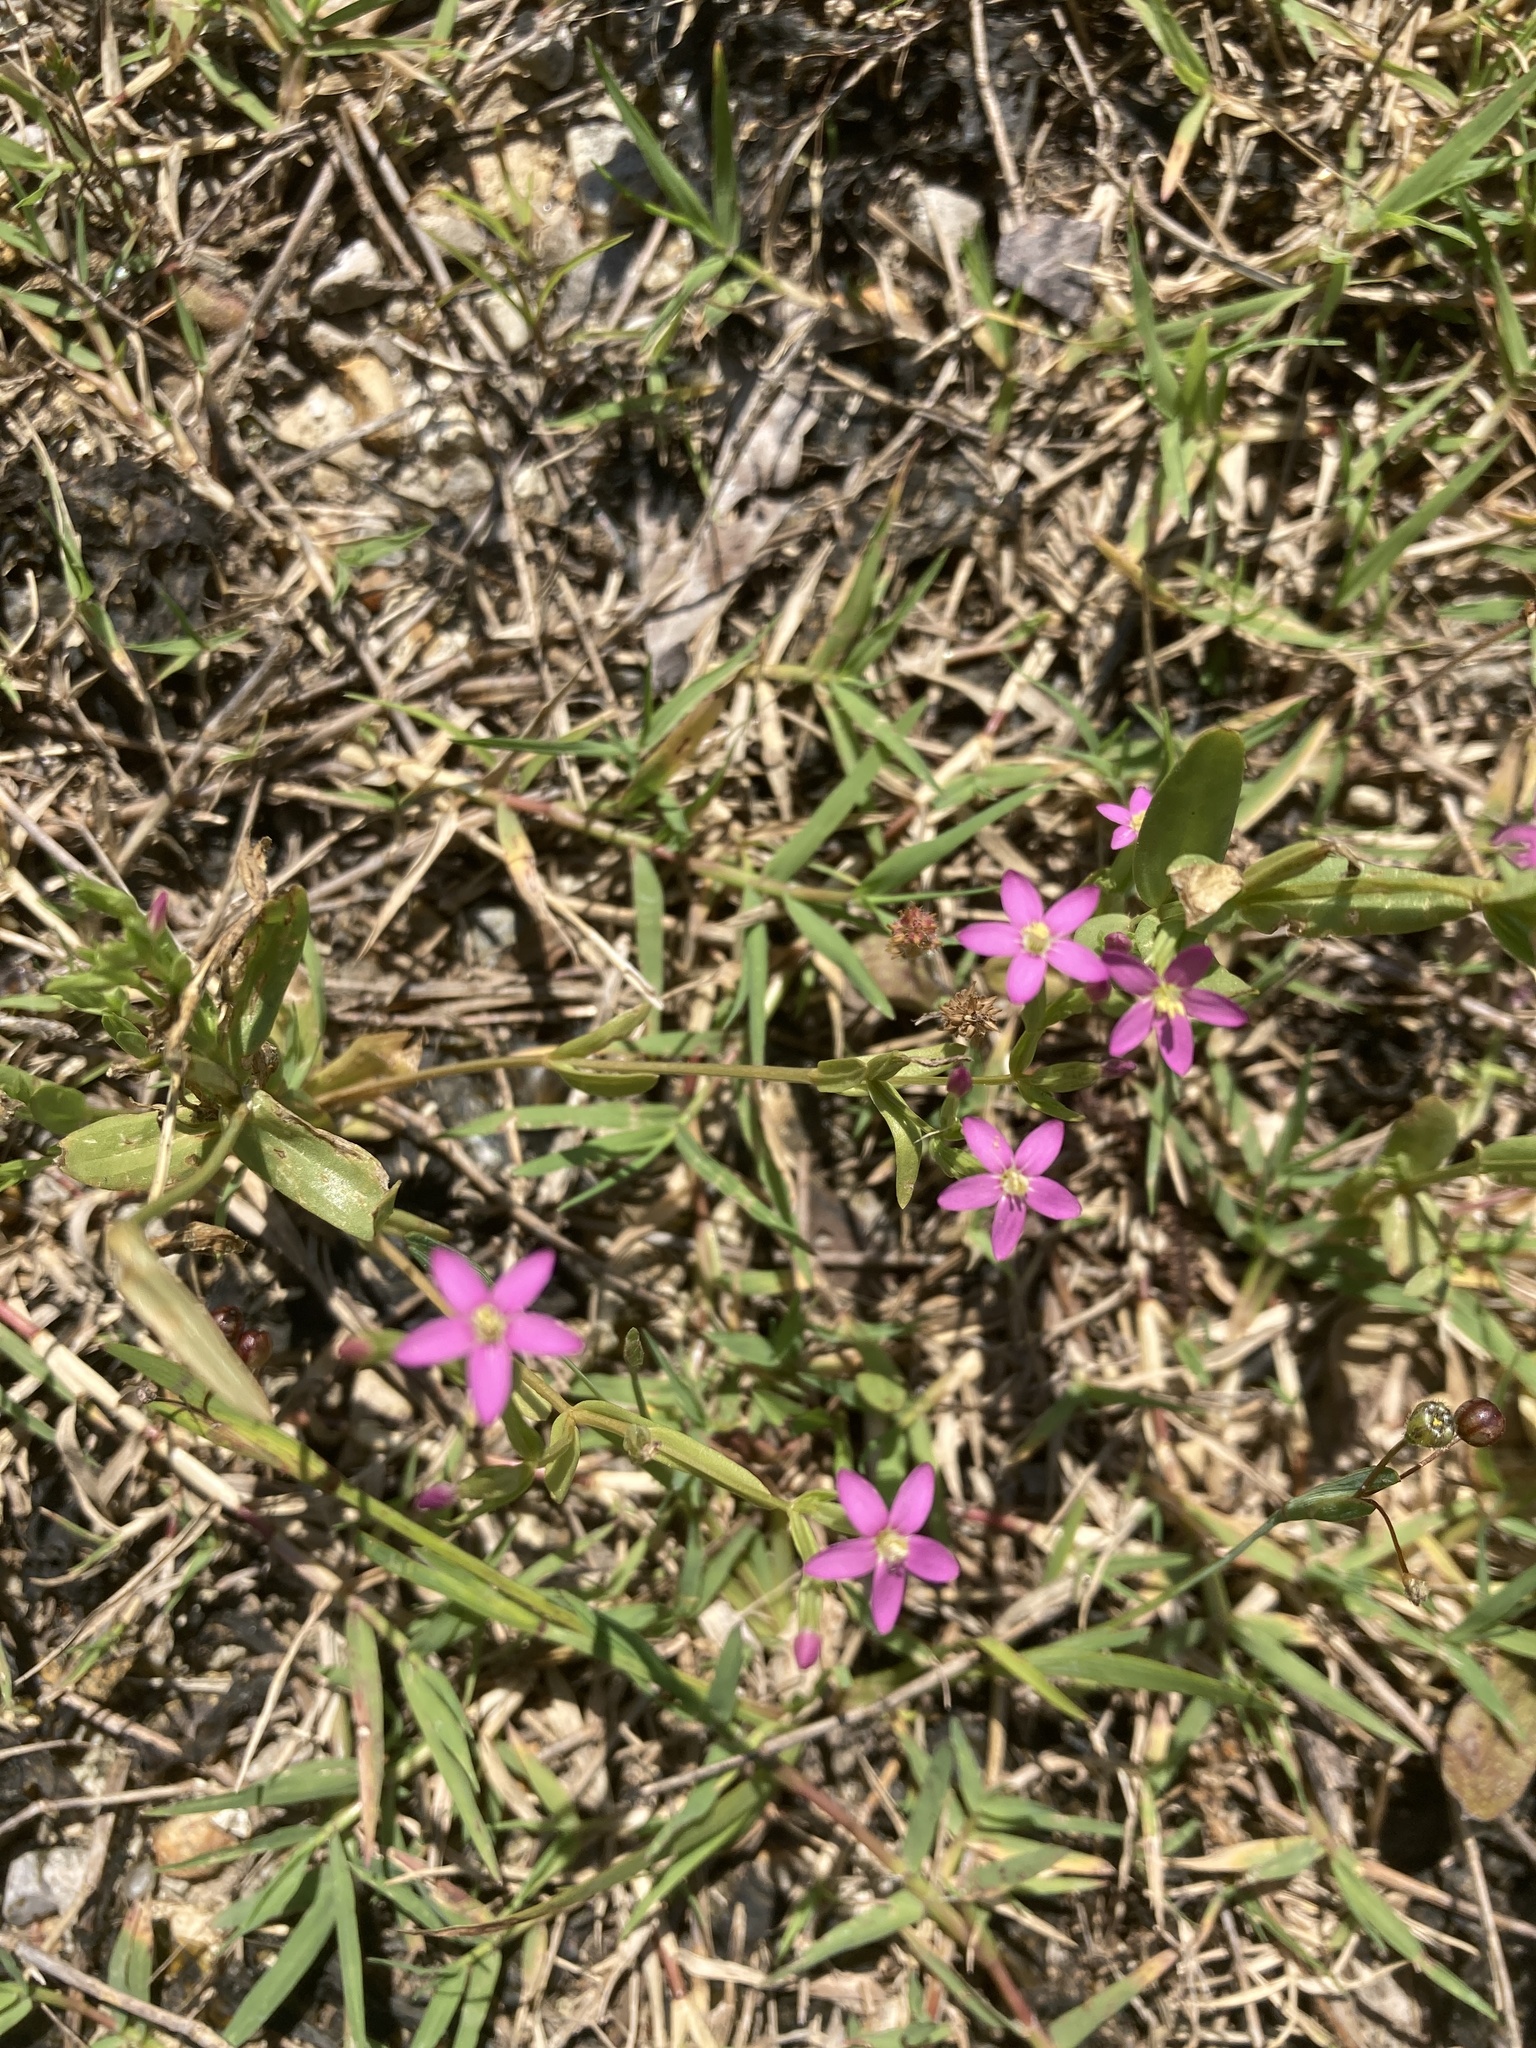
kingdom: Plantae
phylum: Tracheophyta
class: Magnoliopsida
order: Gentianales
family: Gentianaceae
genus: Centaurium
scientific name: Centaurium pulchellum
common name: Lesser centaury
